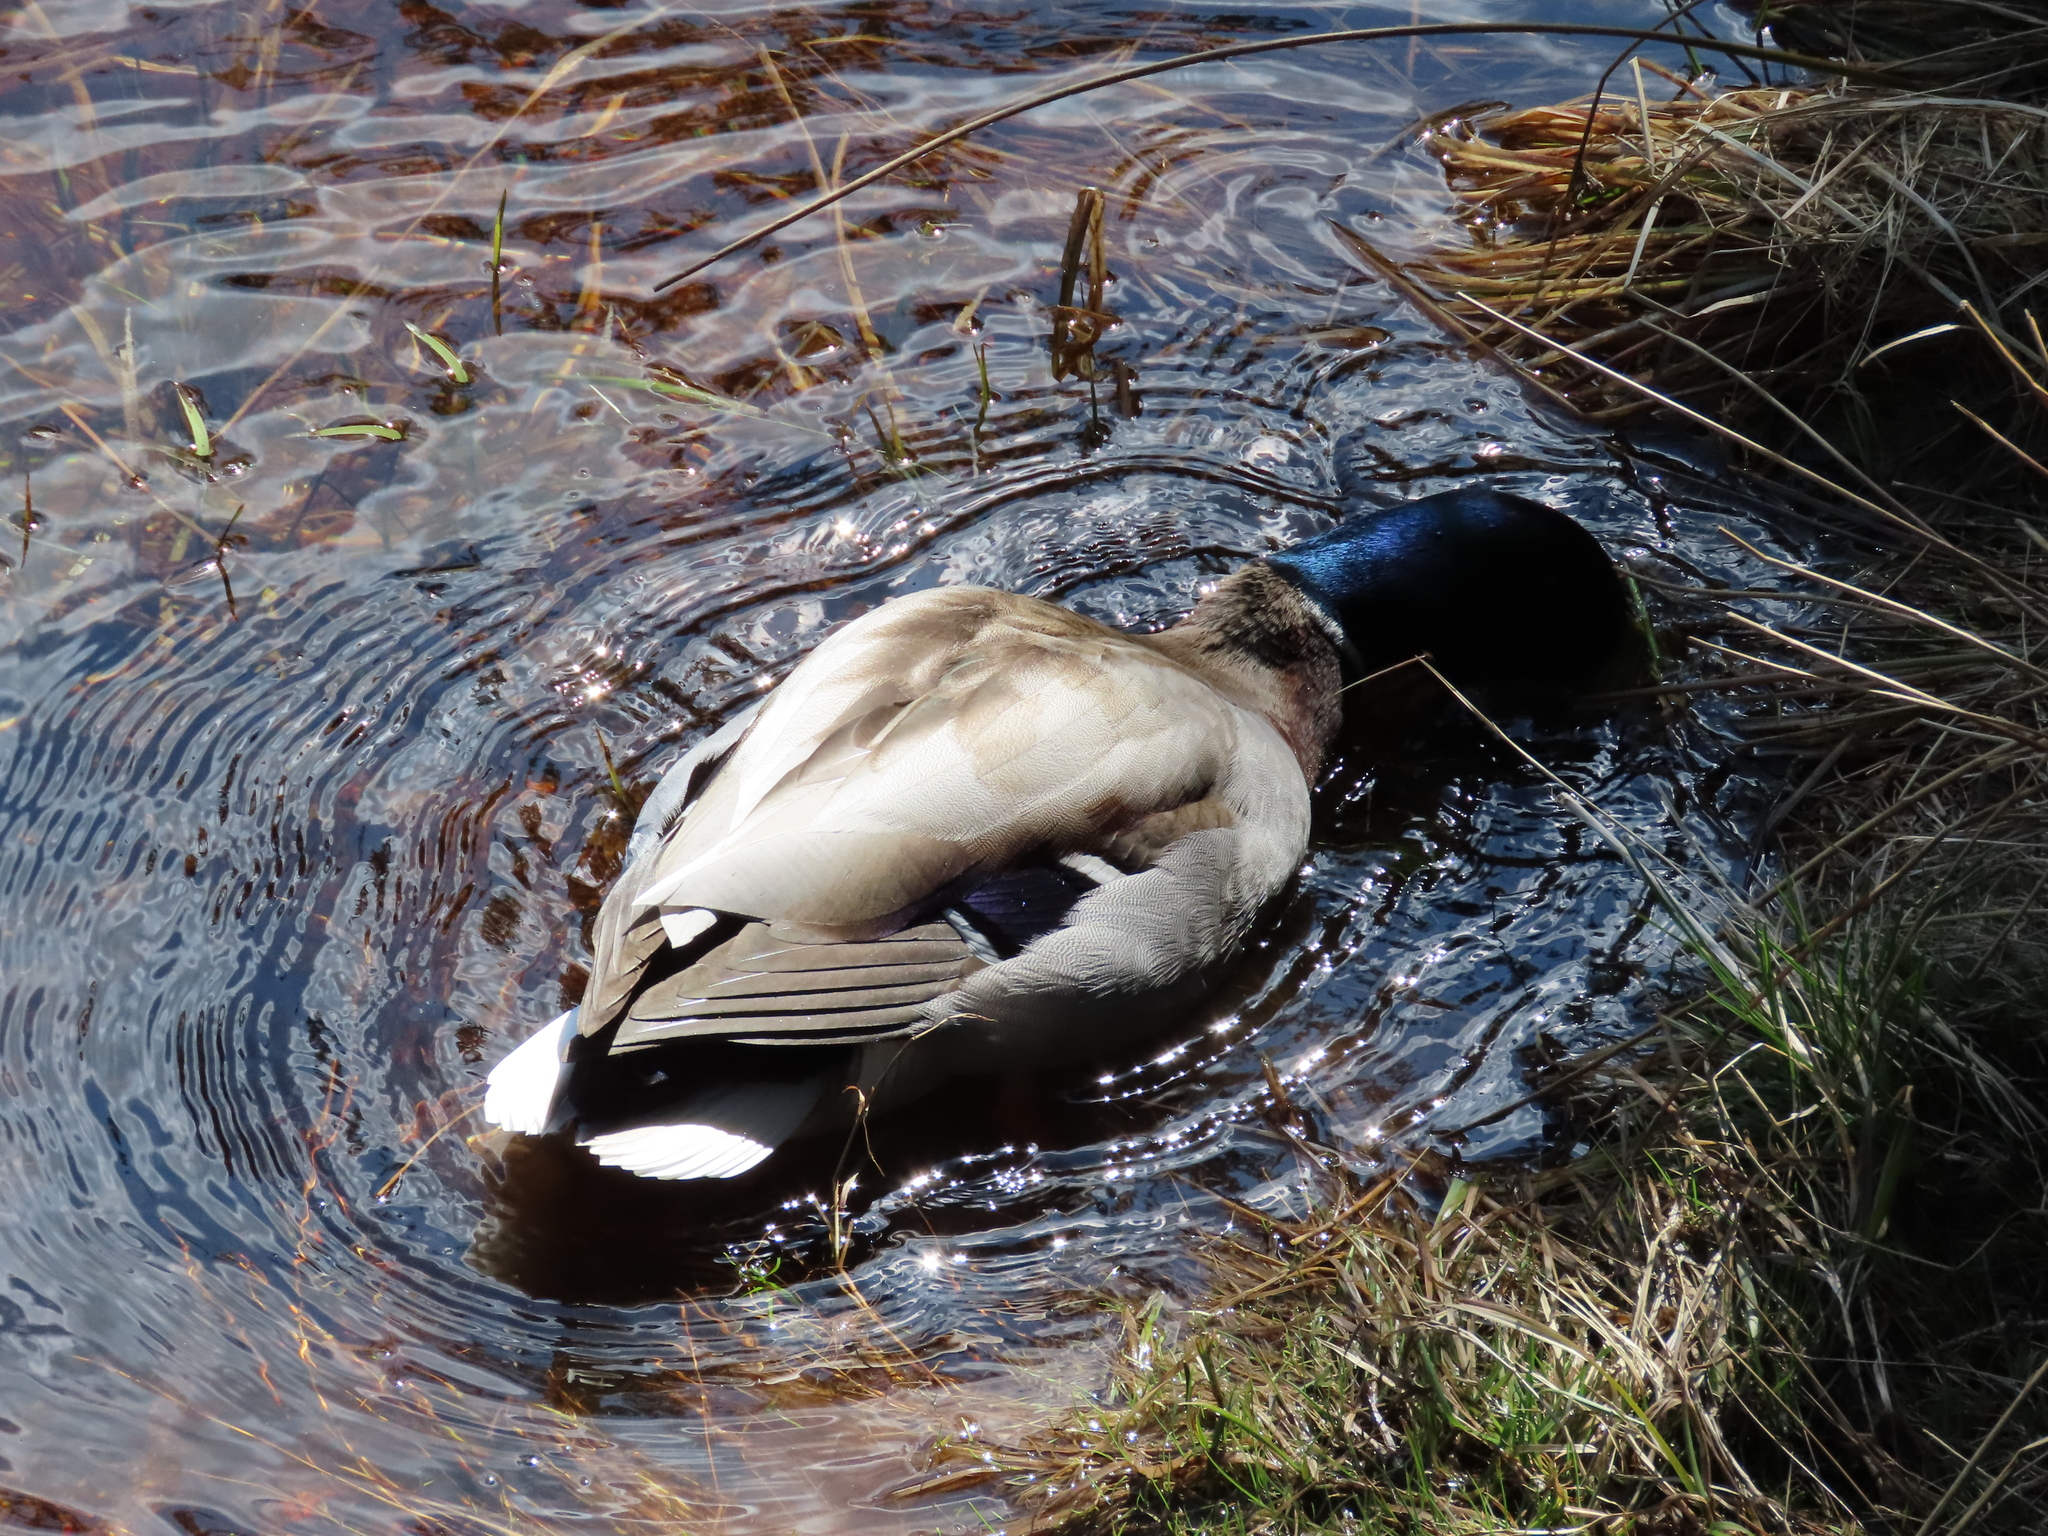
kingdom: Animalia
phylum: Chordata
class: Aves
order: Anseriformes
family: Anatidae
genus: Anas
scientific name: Anas platyrhynchos
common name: Mallard
